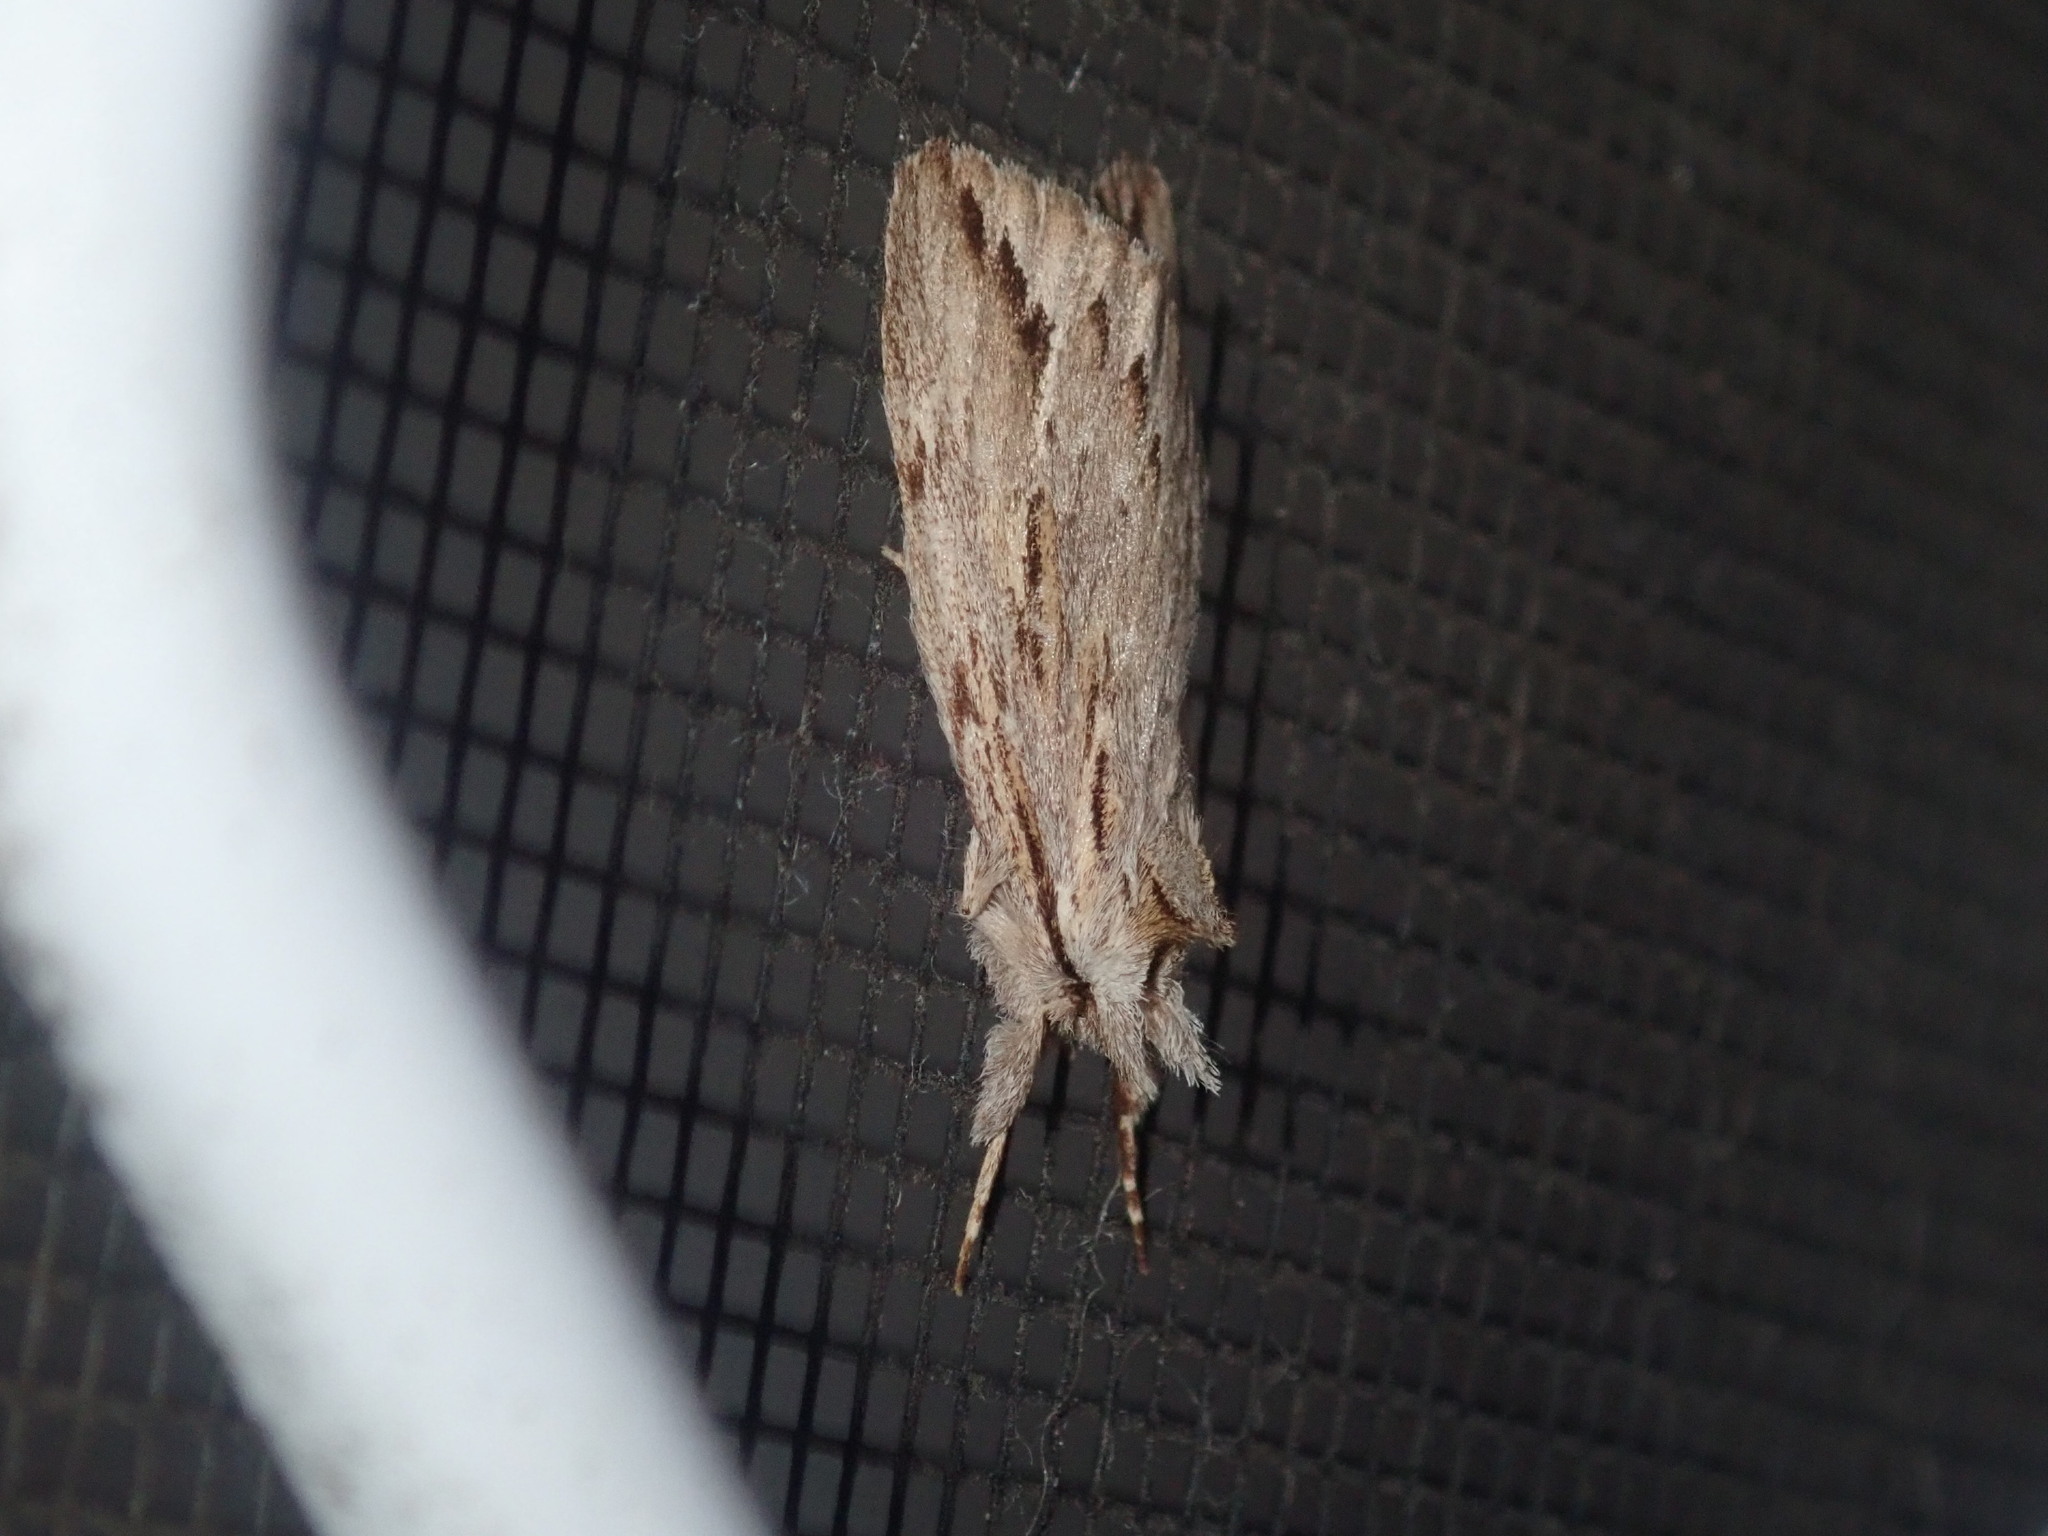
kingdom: Animalia
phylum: Arthropoda
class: Insecta
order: Lepidoptera
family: Notodontidae
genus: Ecnomodes
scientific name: Ecnomodes sagittaria
